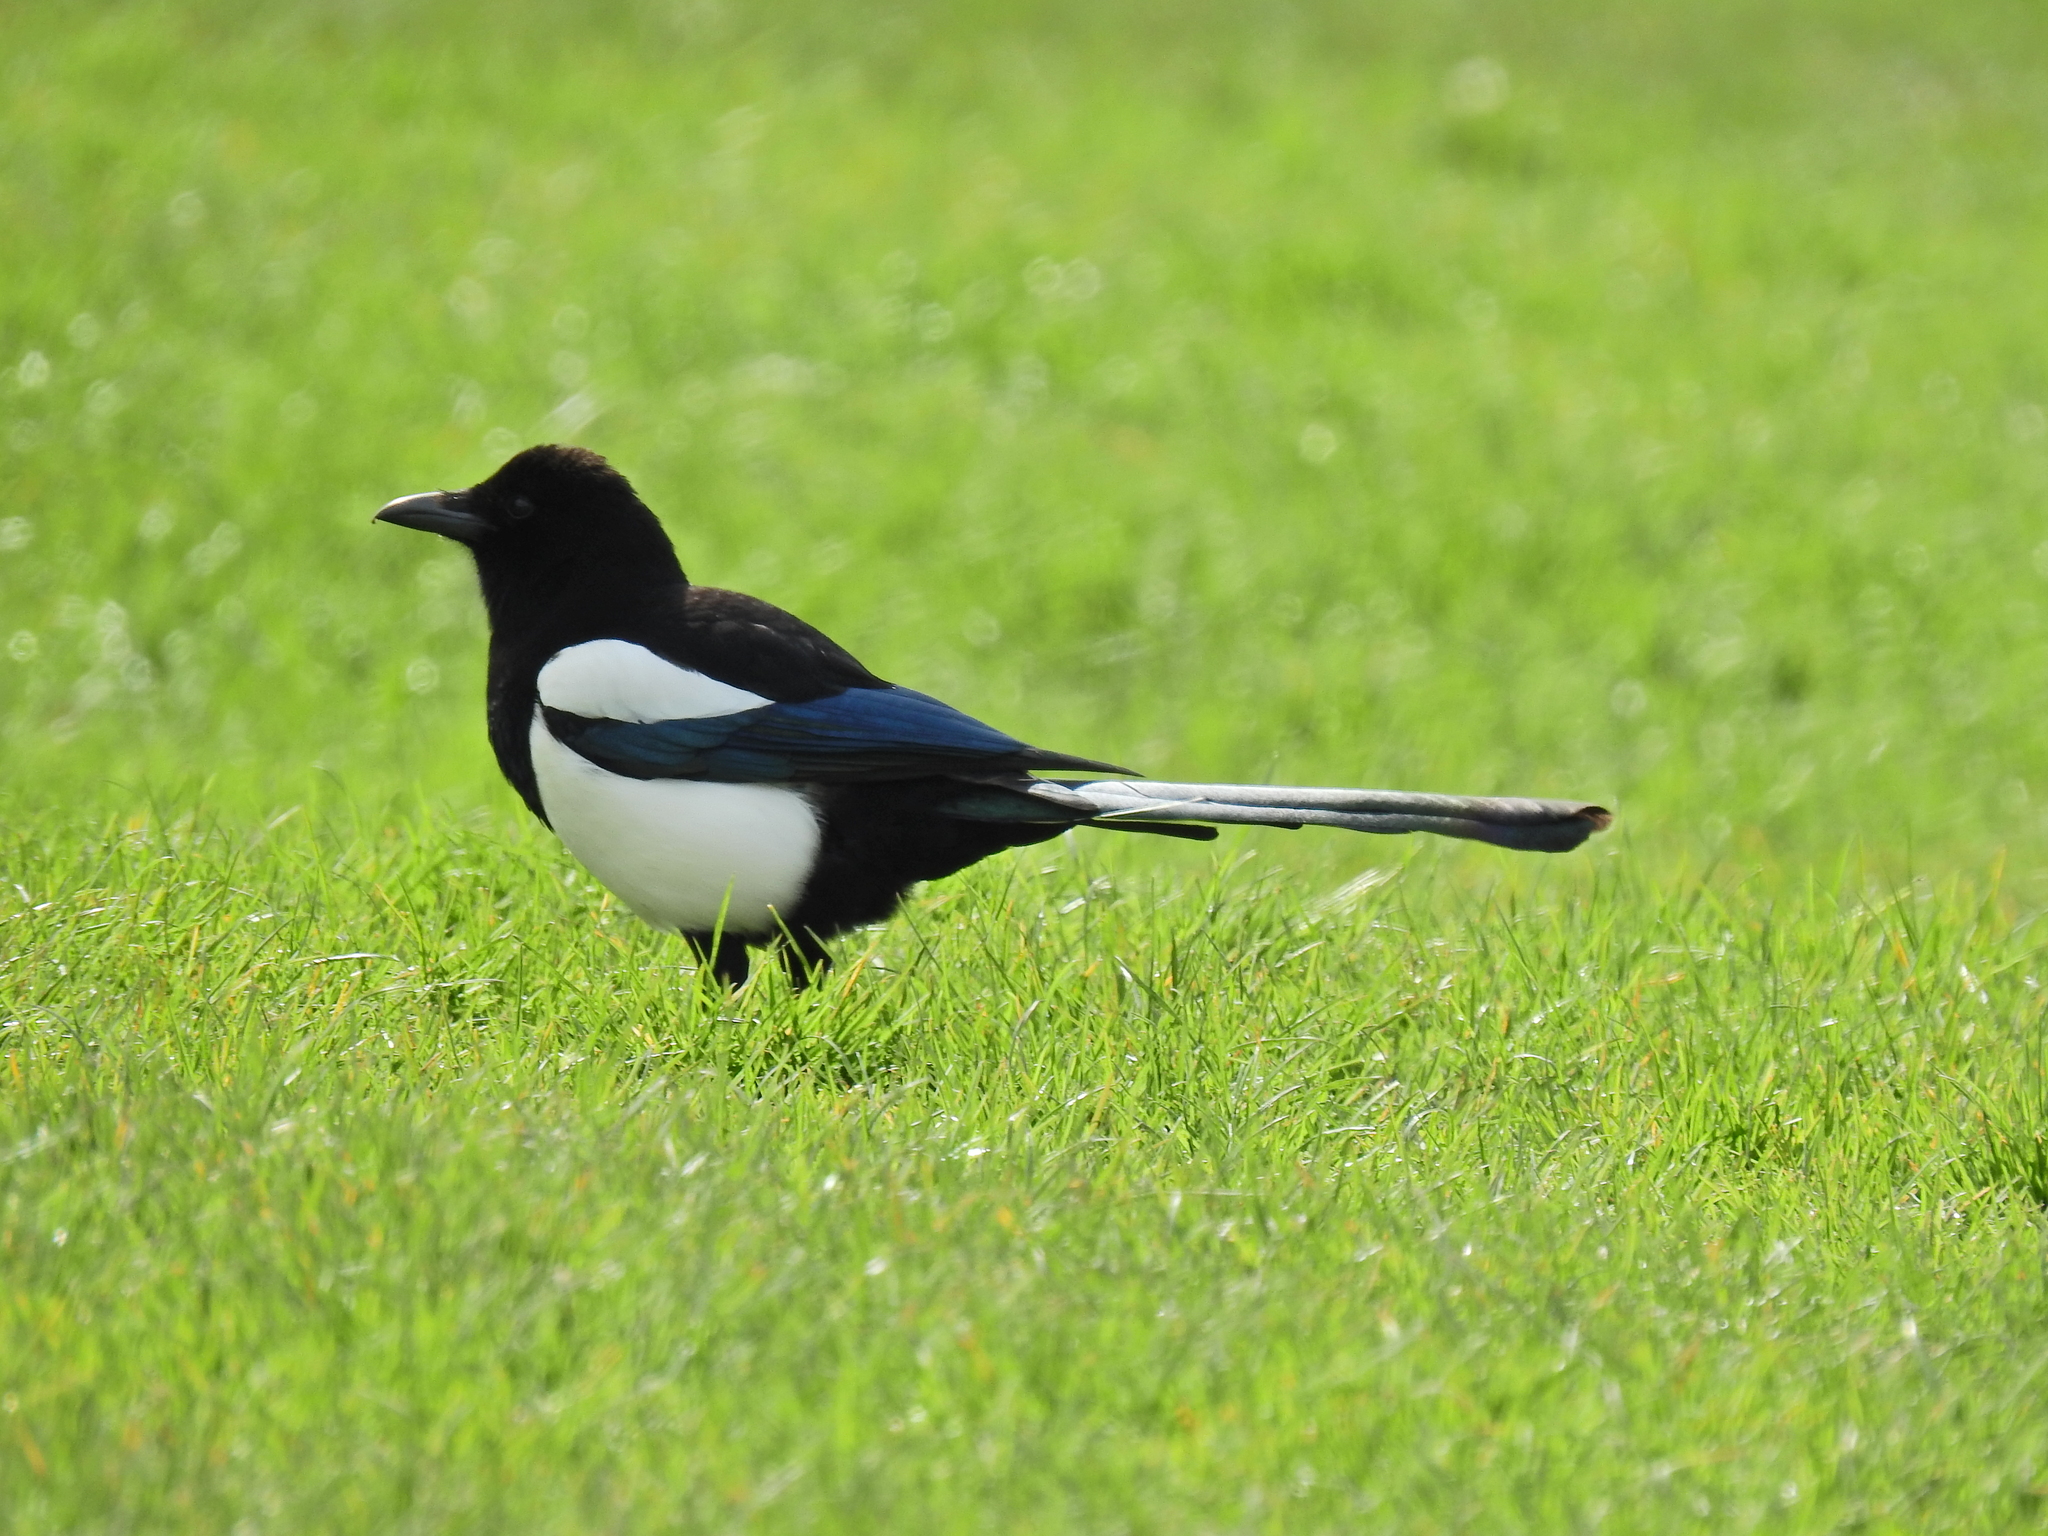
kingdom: Animalia
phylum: Chordata
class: Aves
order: Passeriformes
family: Corvidae
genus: Pica
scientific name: Pica pica
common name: Eurasian magpie
